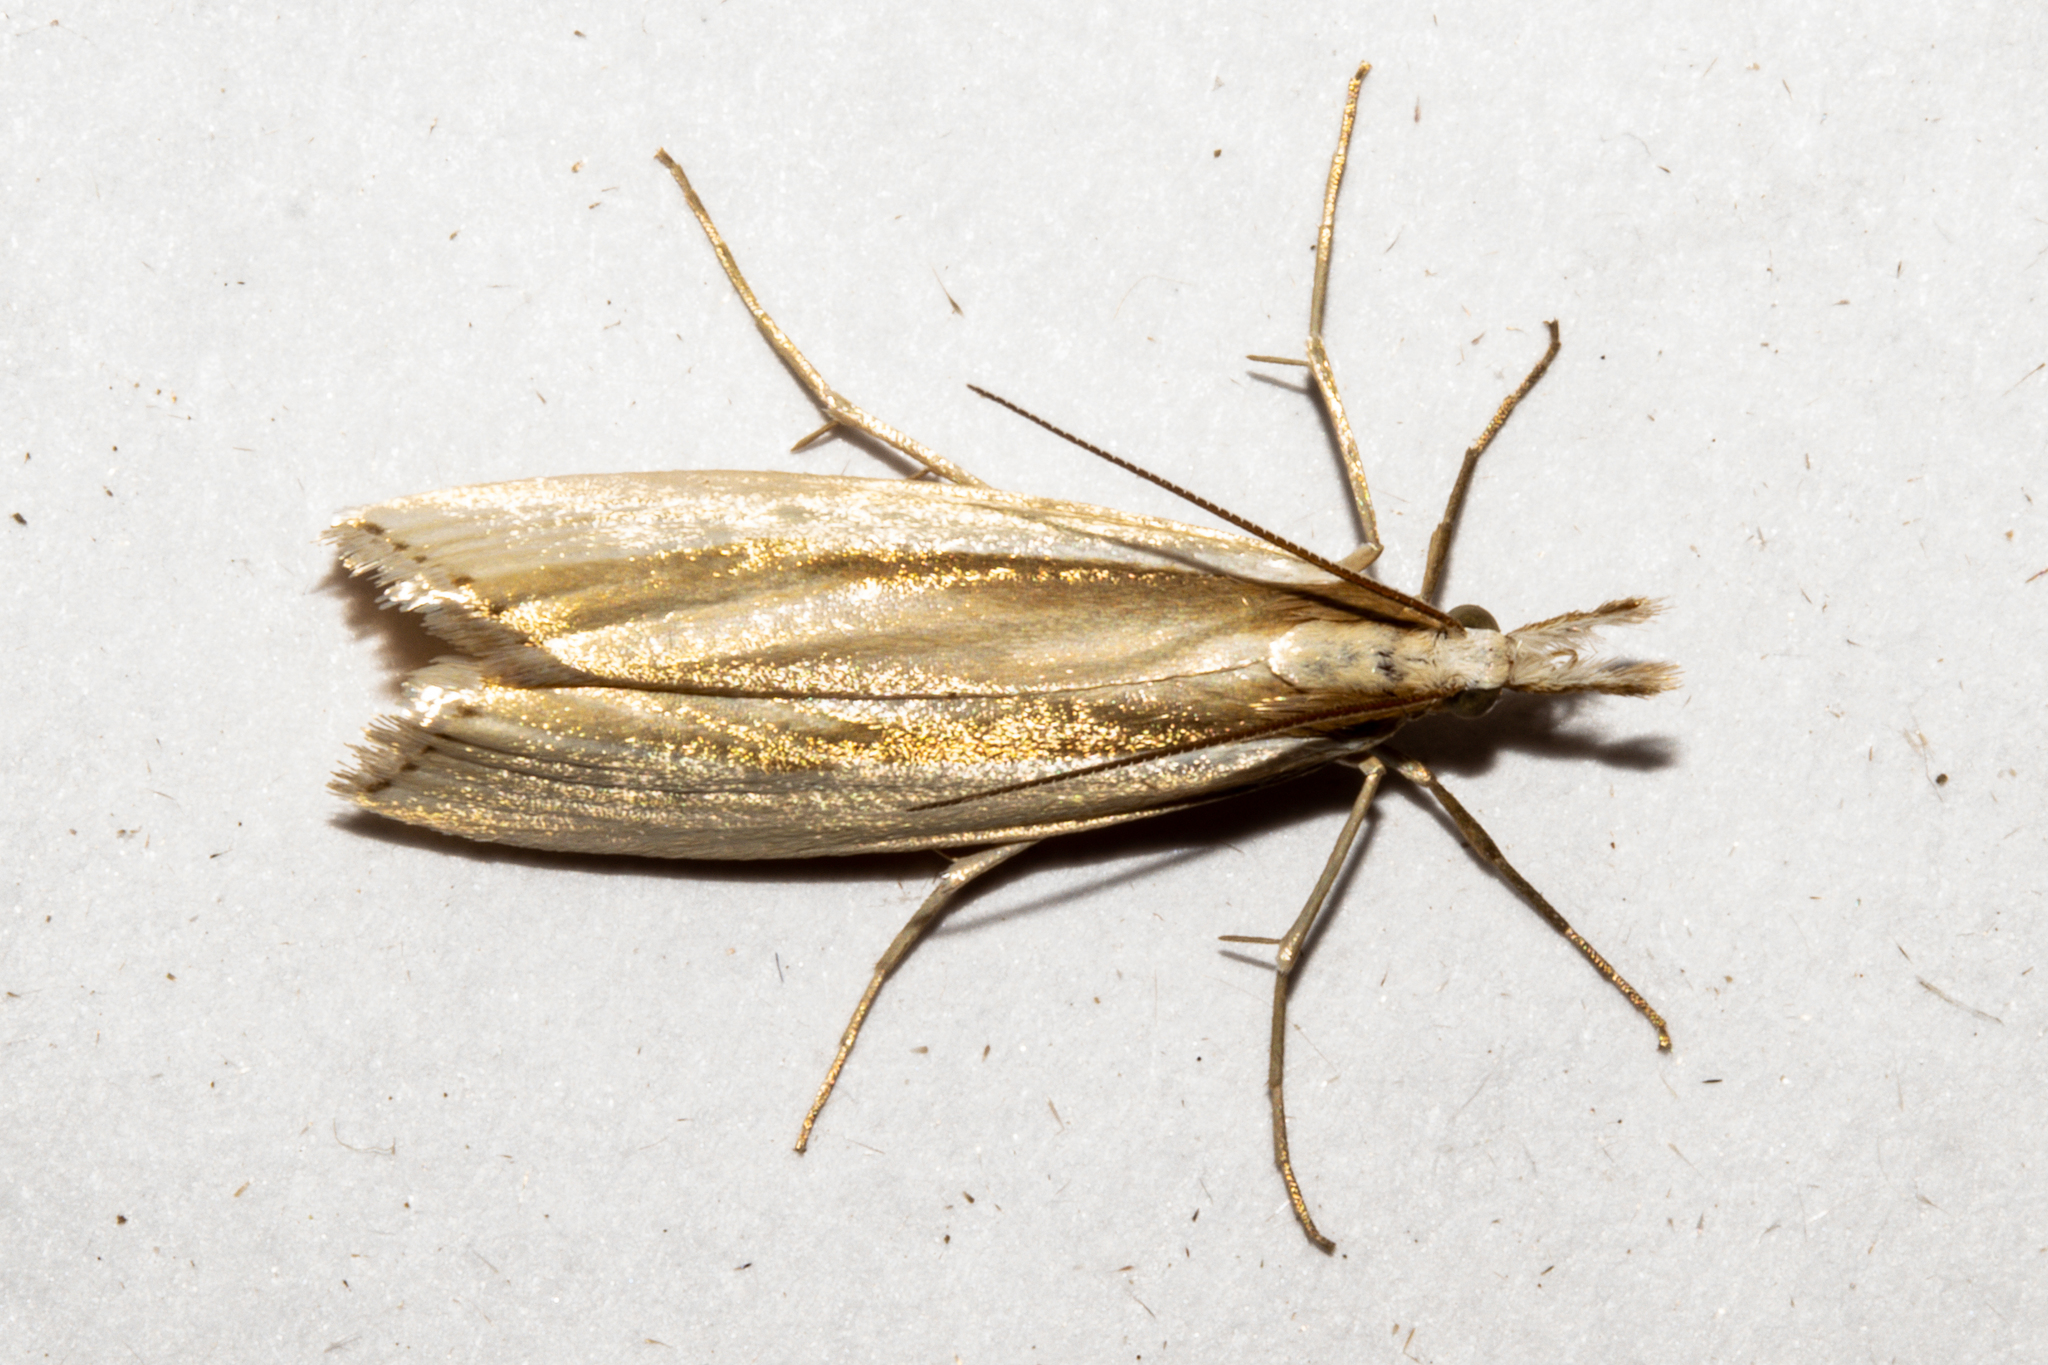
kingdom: Animalia
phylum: Arthropoda
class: Insecta
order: Lepidoptera
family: Crambidae
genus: Orocrambus
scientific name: Orocrambus ramosellus
